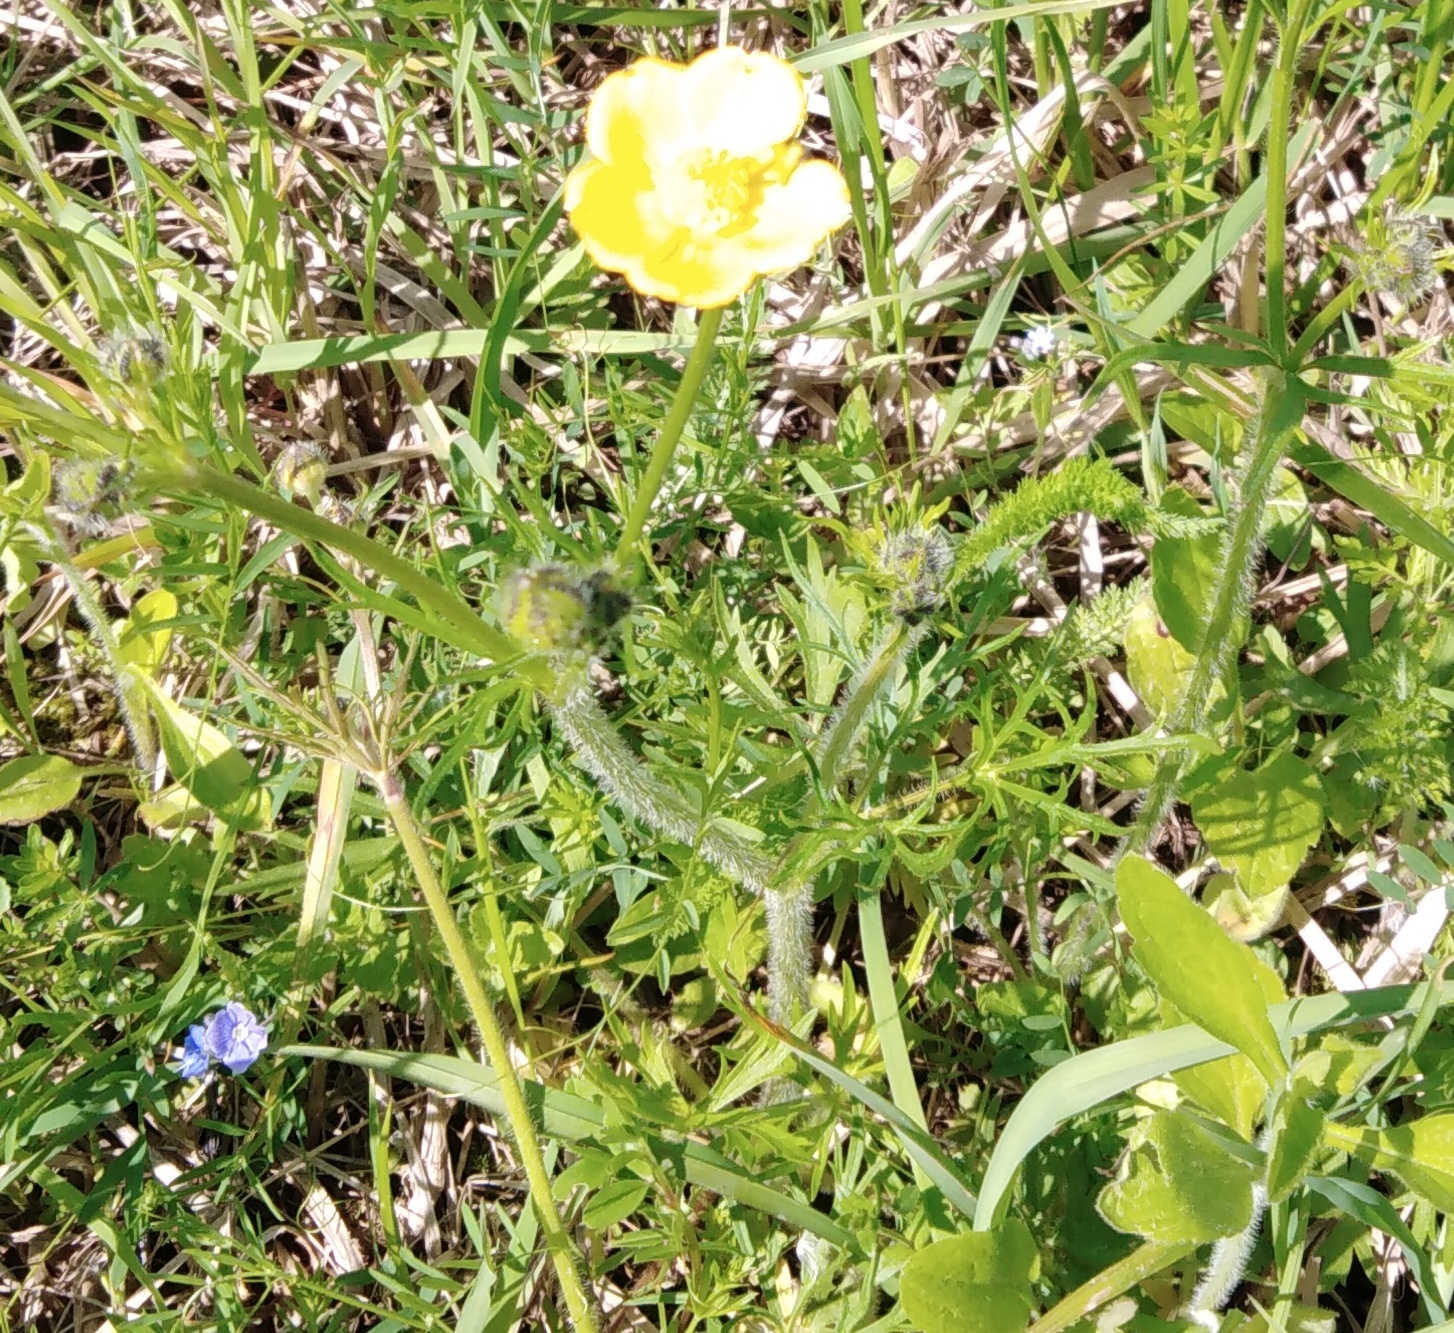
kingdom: Plantae
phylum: Tracheophyta
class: Magnoliopsida
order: Ranunculales
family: Ranunculaceae
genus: Ranunculus
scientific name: Ranunculus polyanthemos
